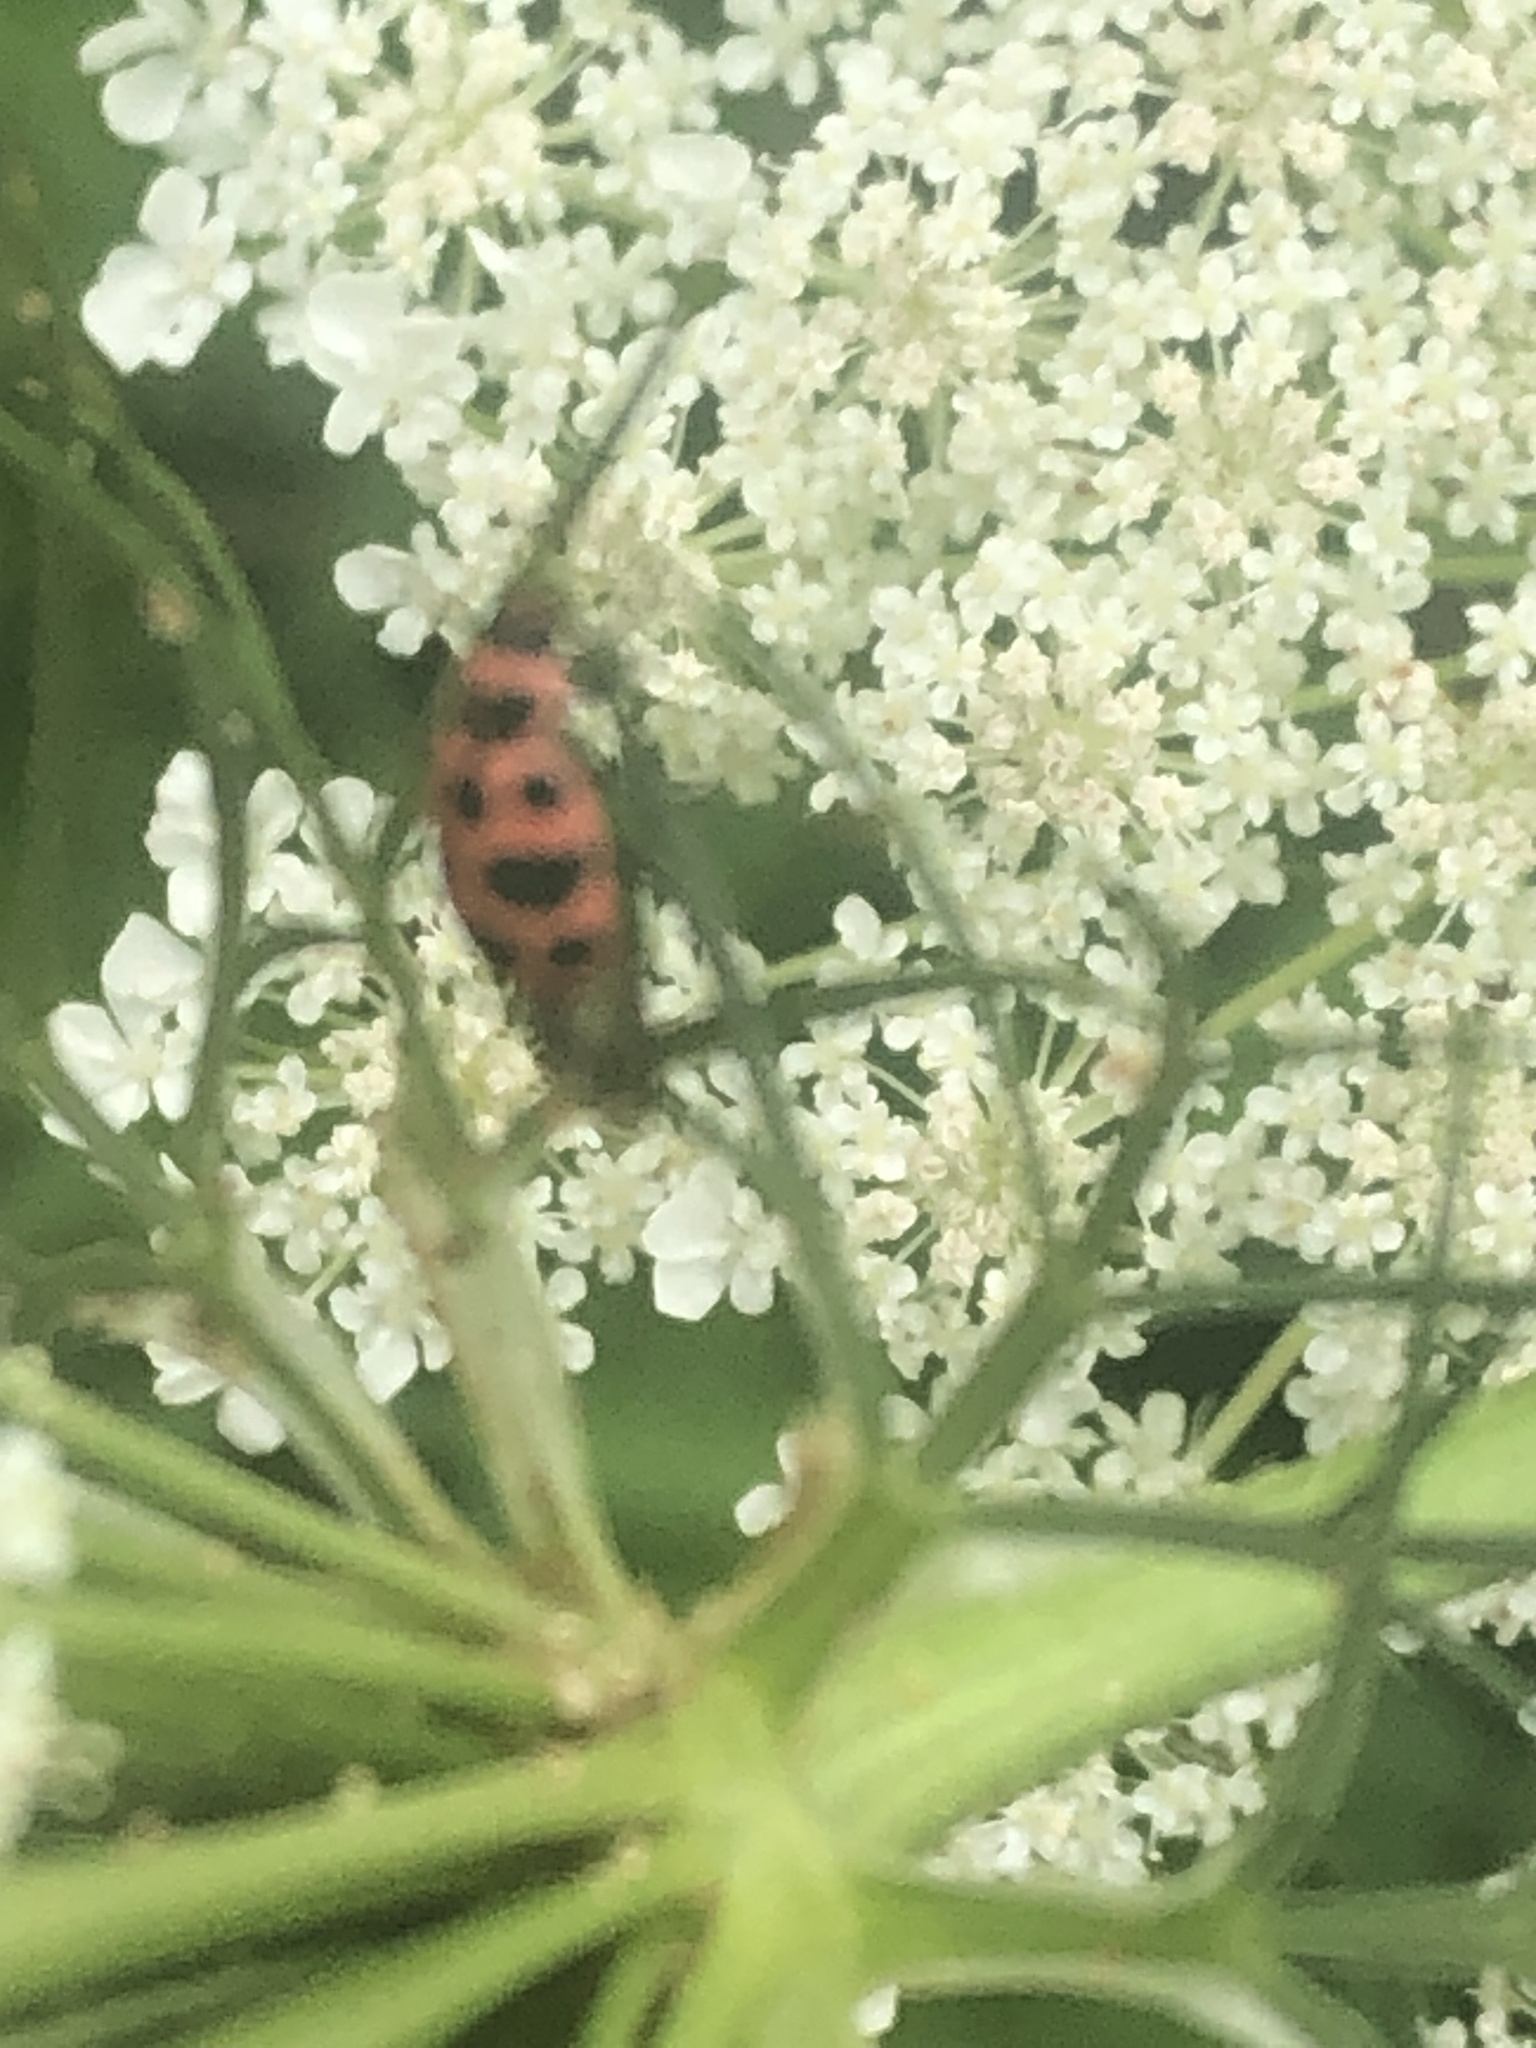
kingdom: Animalia
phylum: Arthropoda
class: Insecta
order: Coleoptera
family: Coccinellidae
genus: Coleomegilla
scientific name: Coleomegilla maculata
